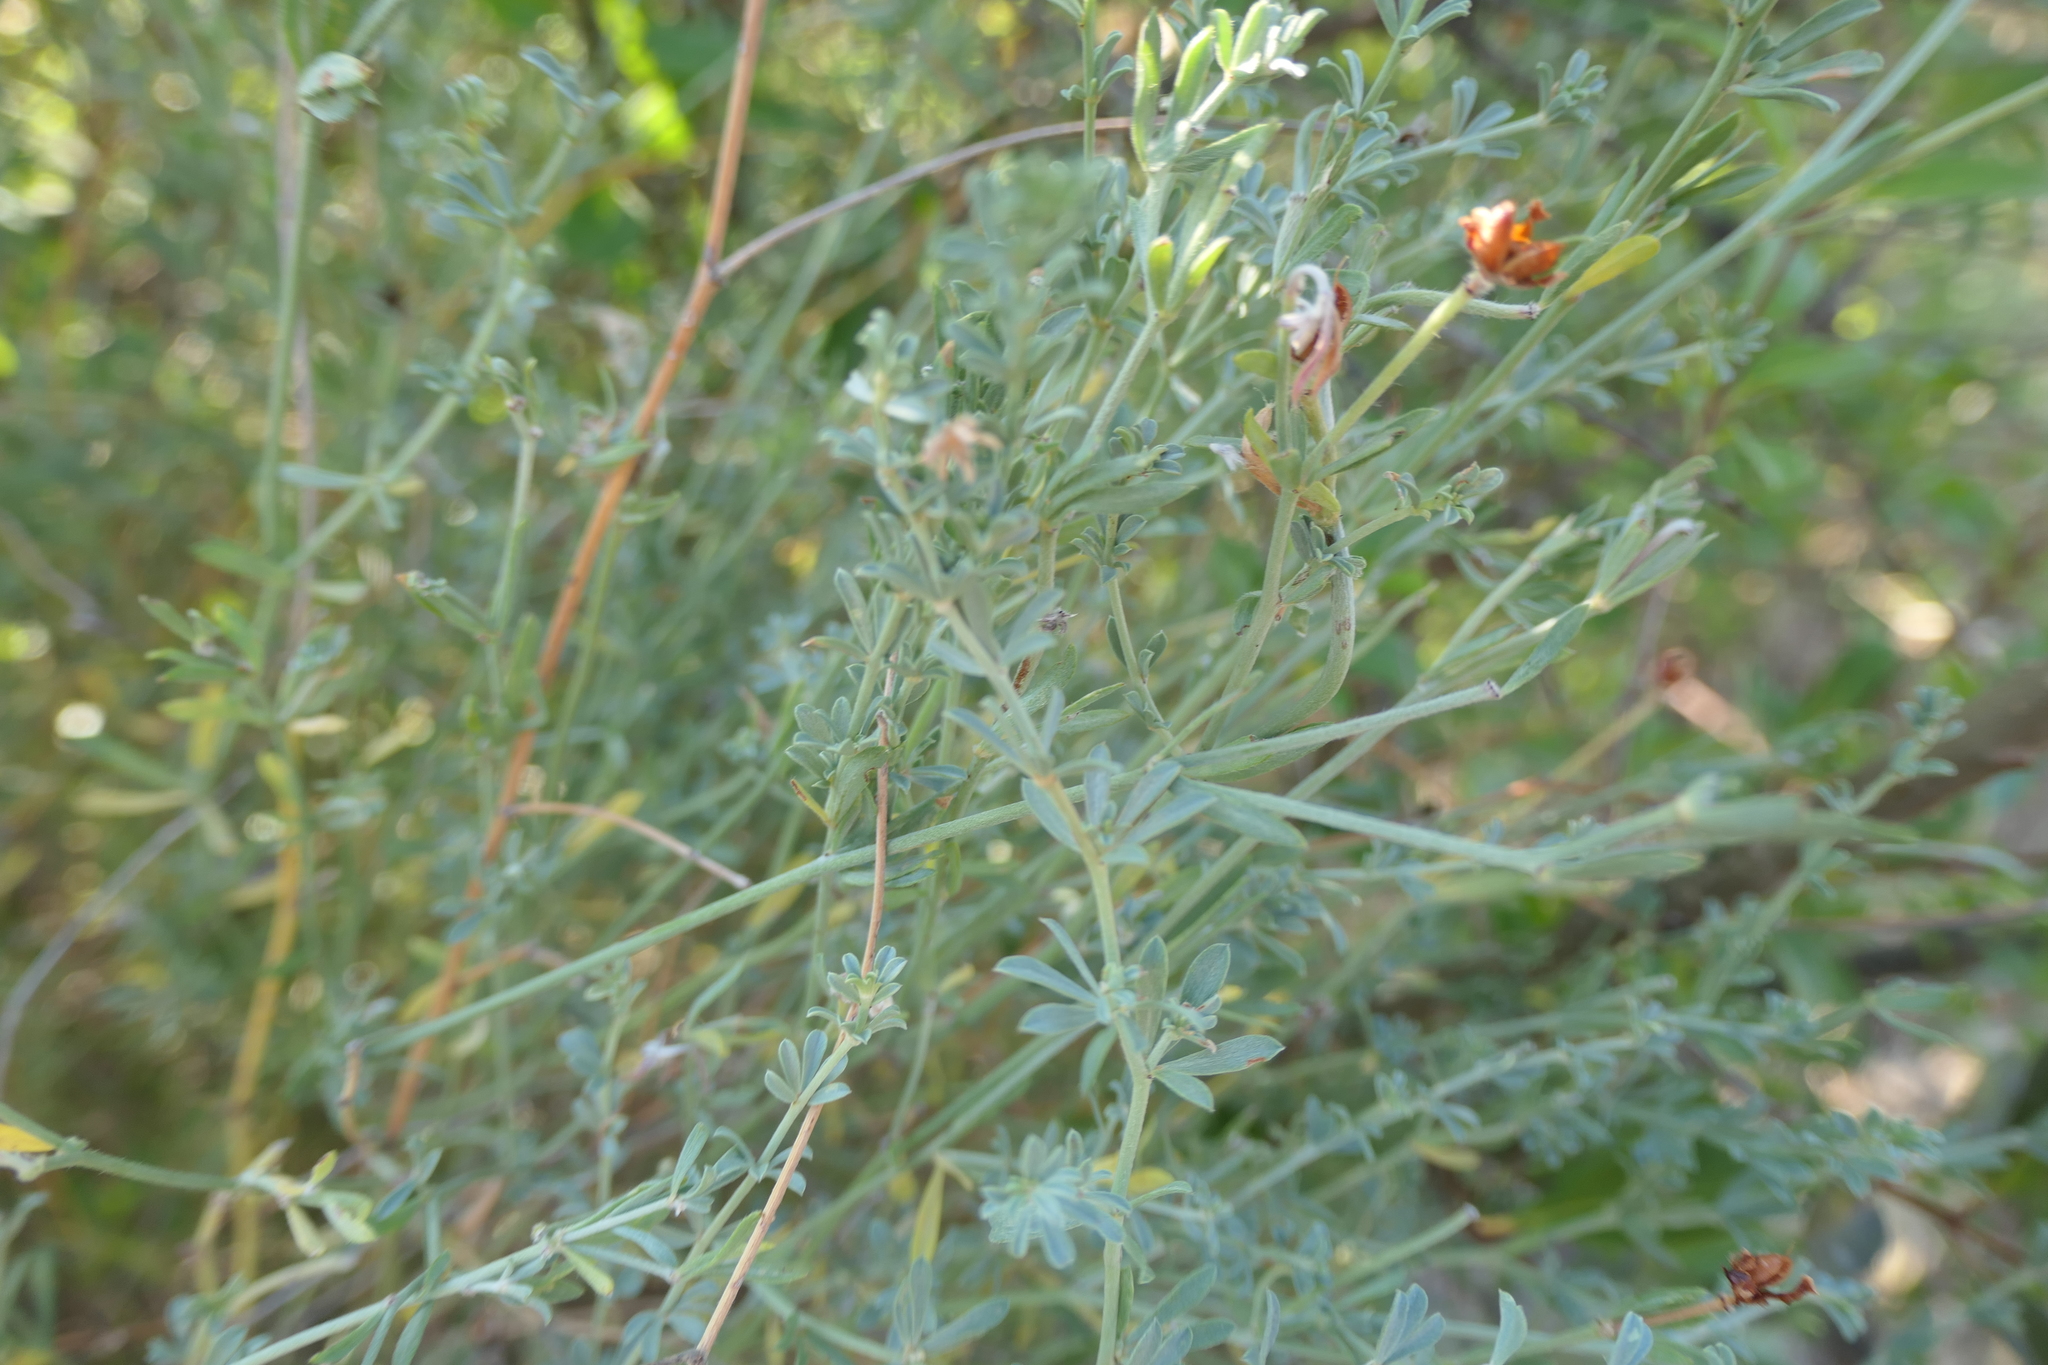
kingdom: Plantae
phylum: Tracheophyta
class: Magnoliopsida
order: Fabales
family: Fabaceae
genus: Lotus
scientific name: Lotus dorycnium
